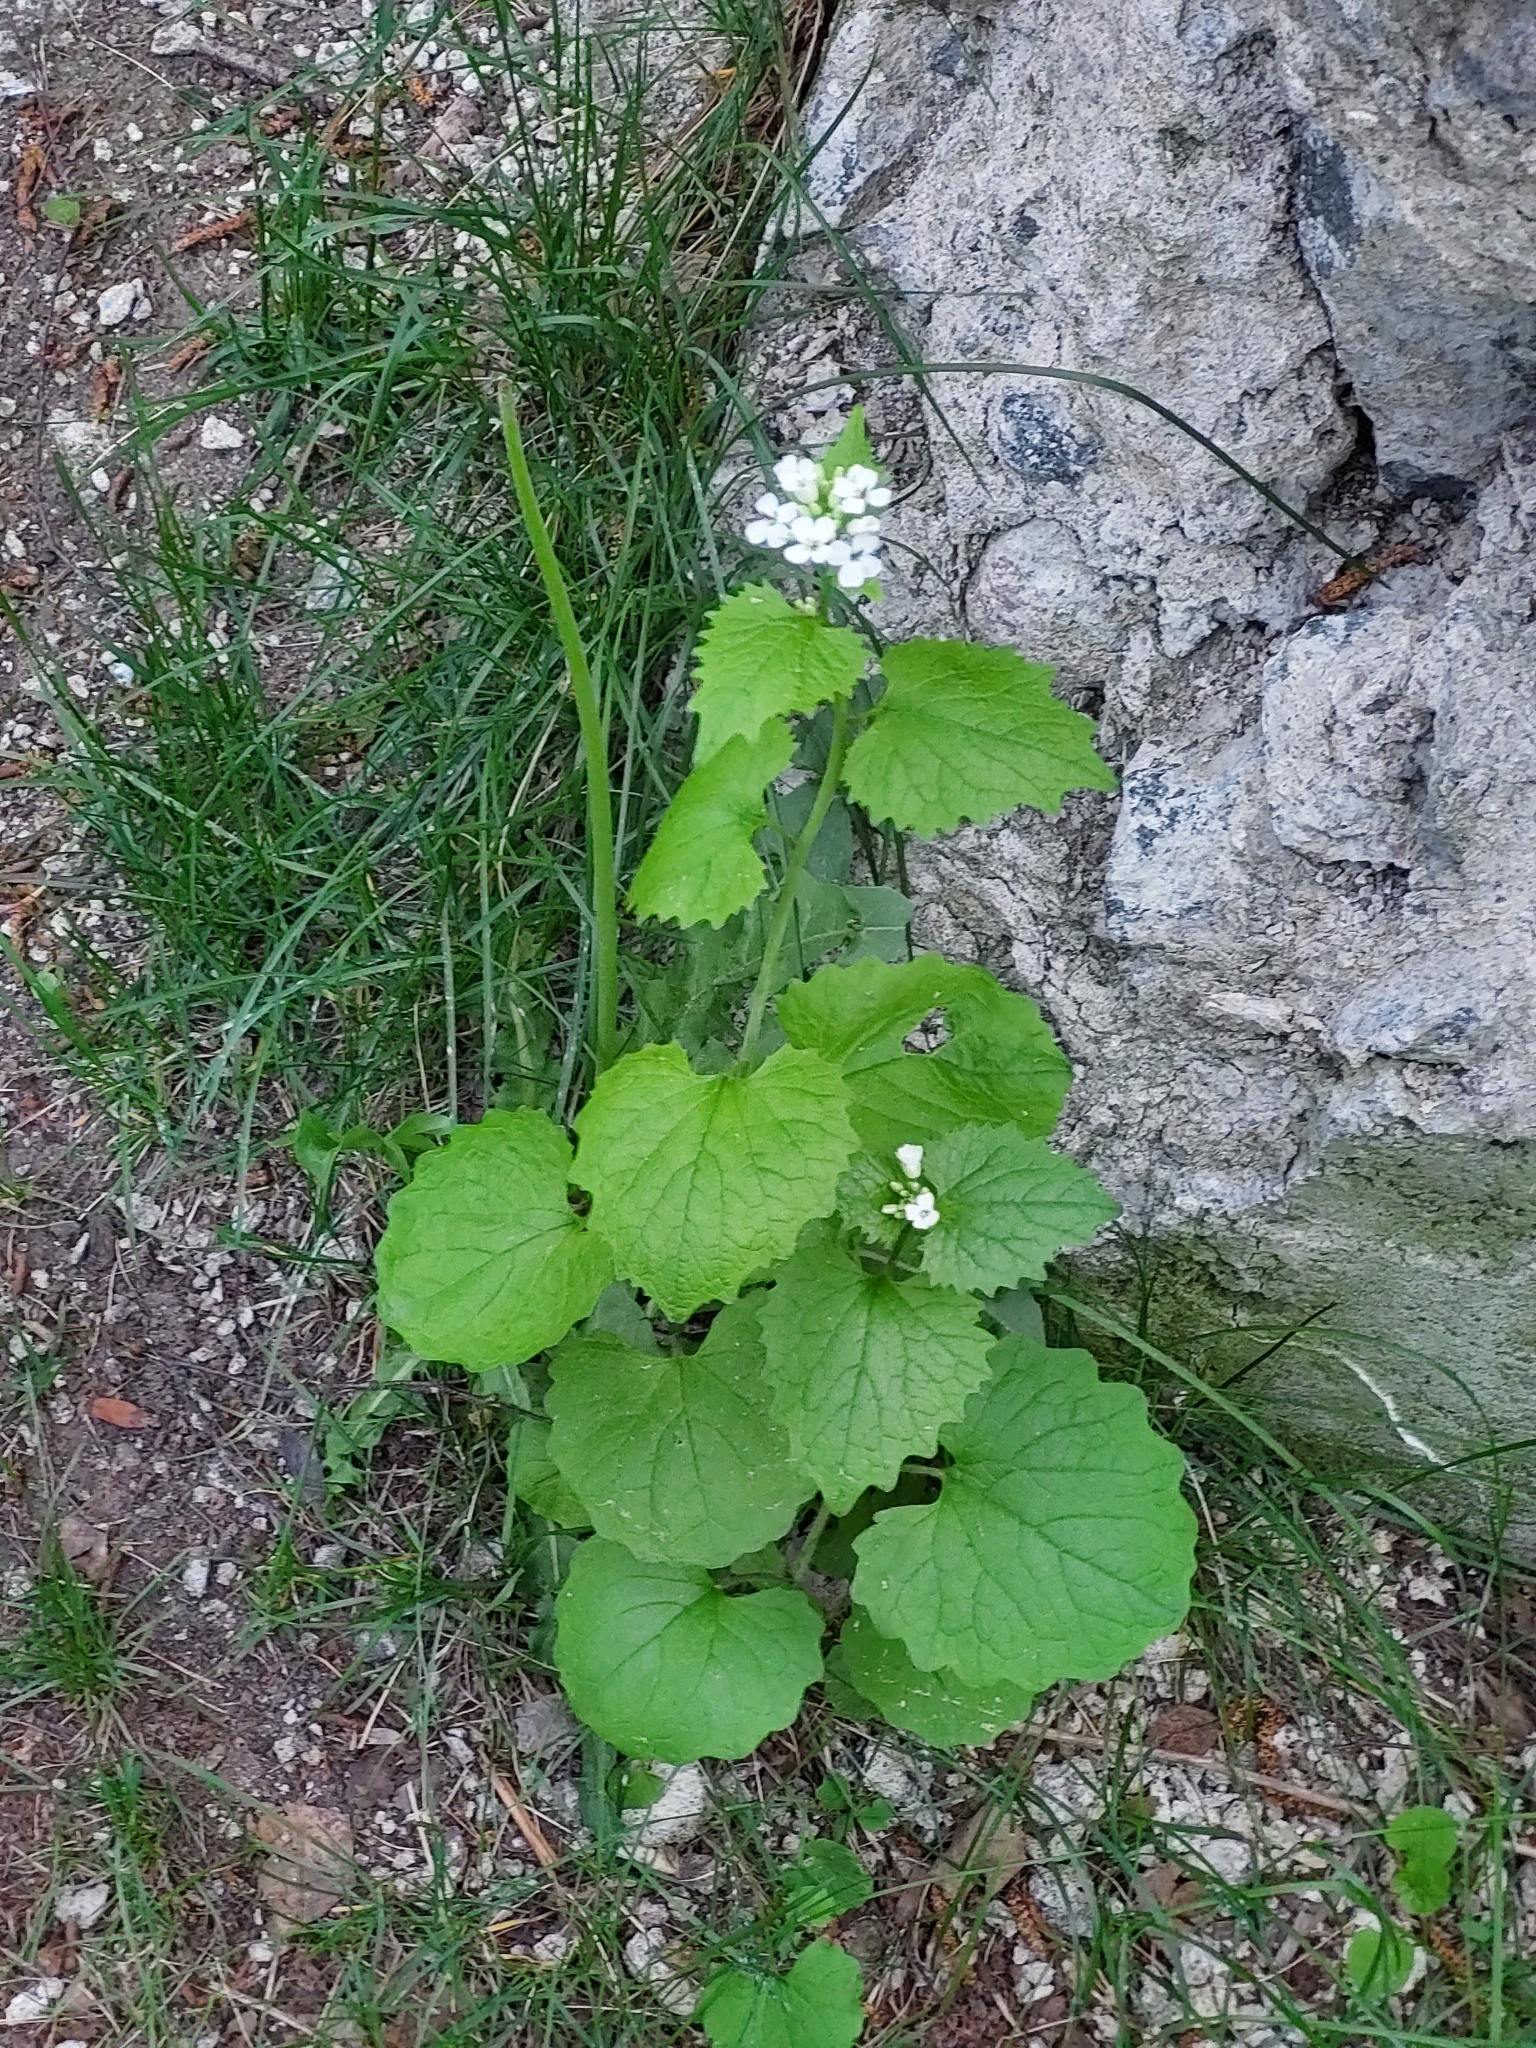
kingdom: Plantae
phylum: Tracheophyta
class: Magnoliopsida
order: Brassicales
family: Brassicaceae
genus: Alliaria
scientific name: Alliaria petiolata
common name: Garlic mustard
